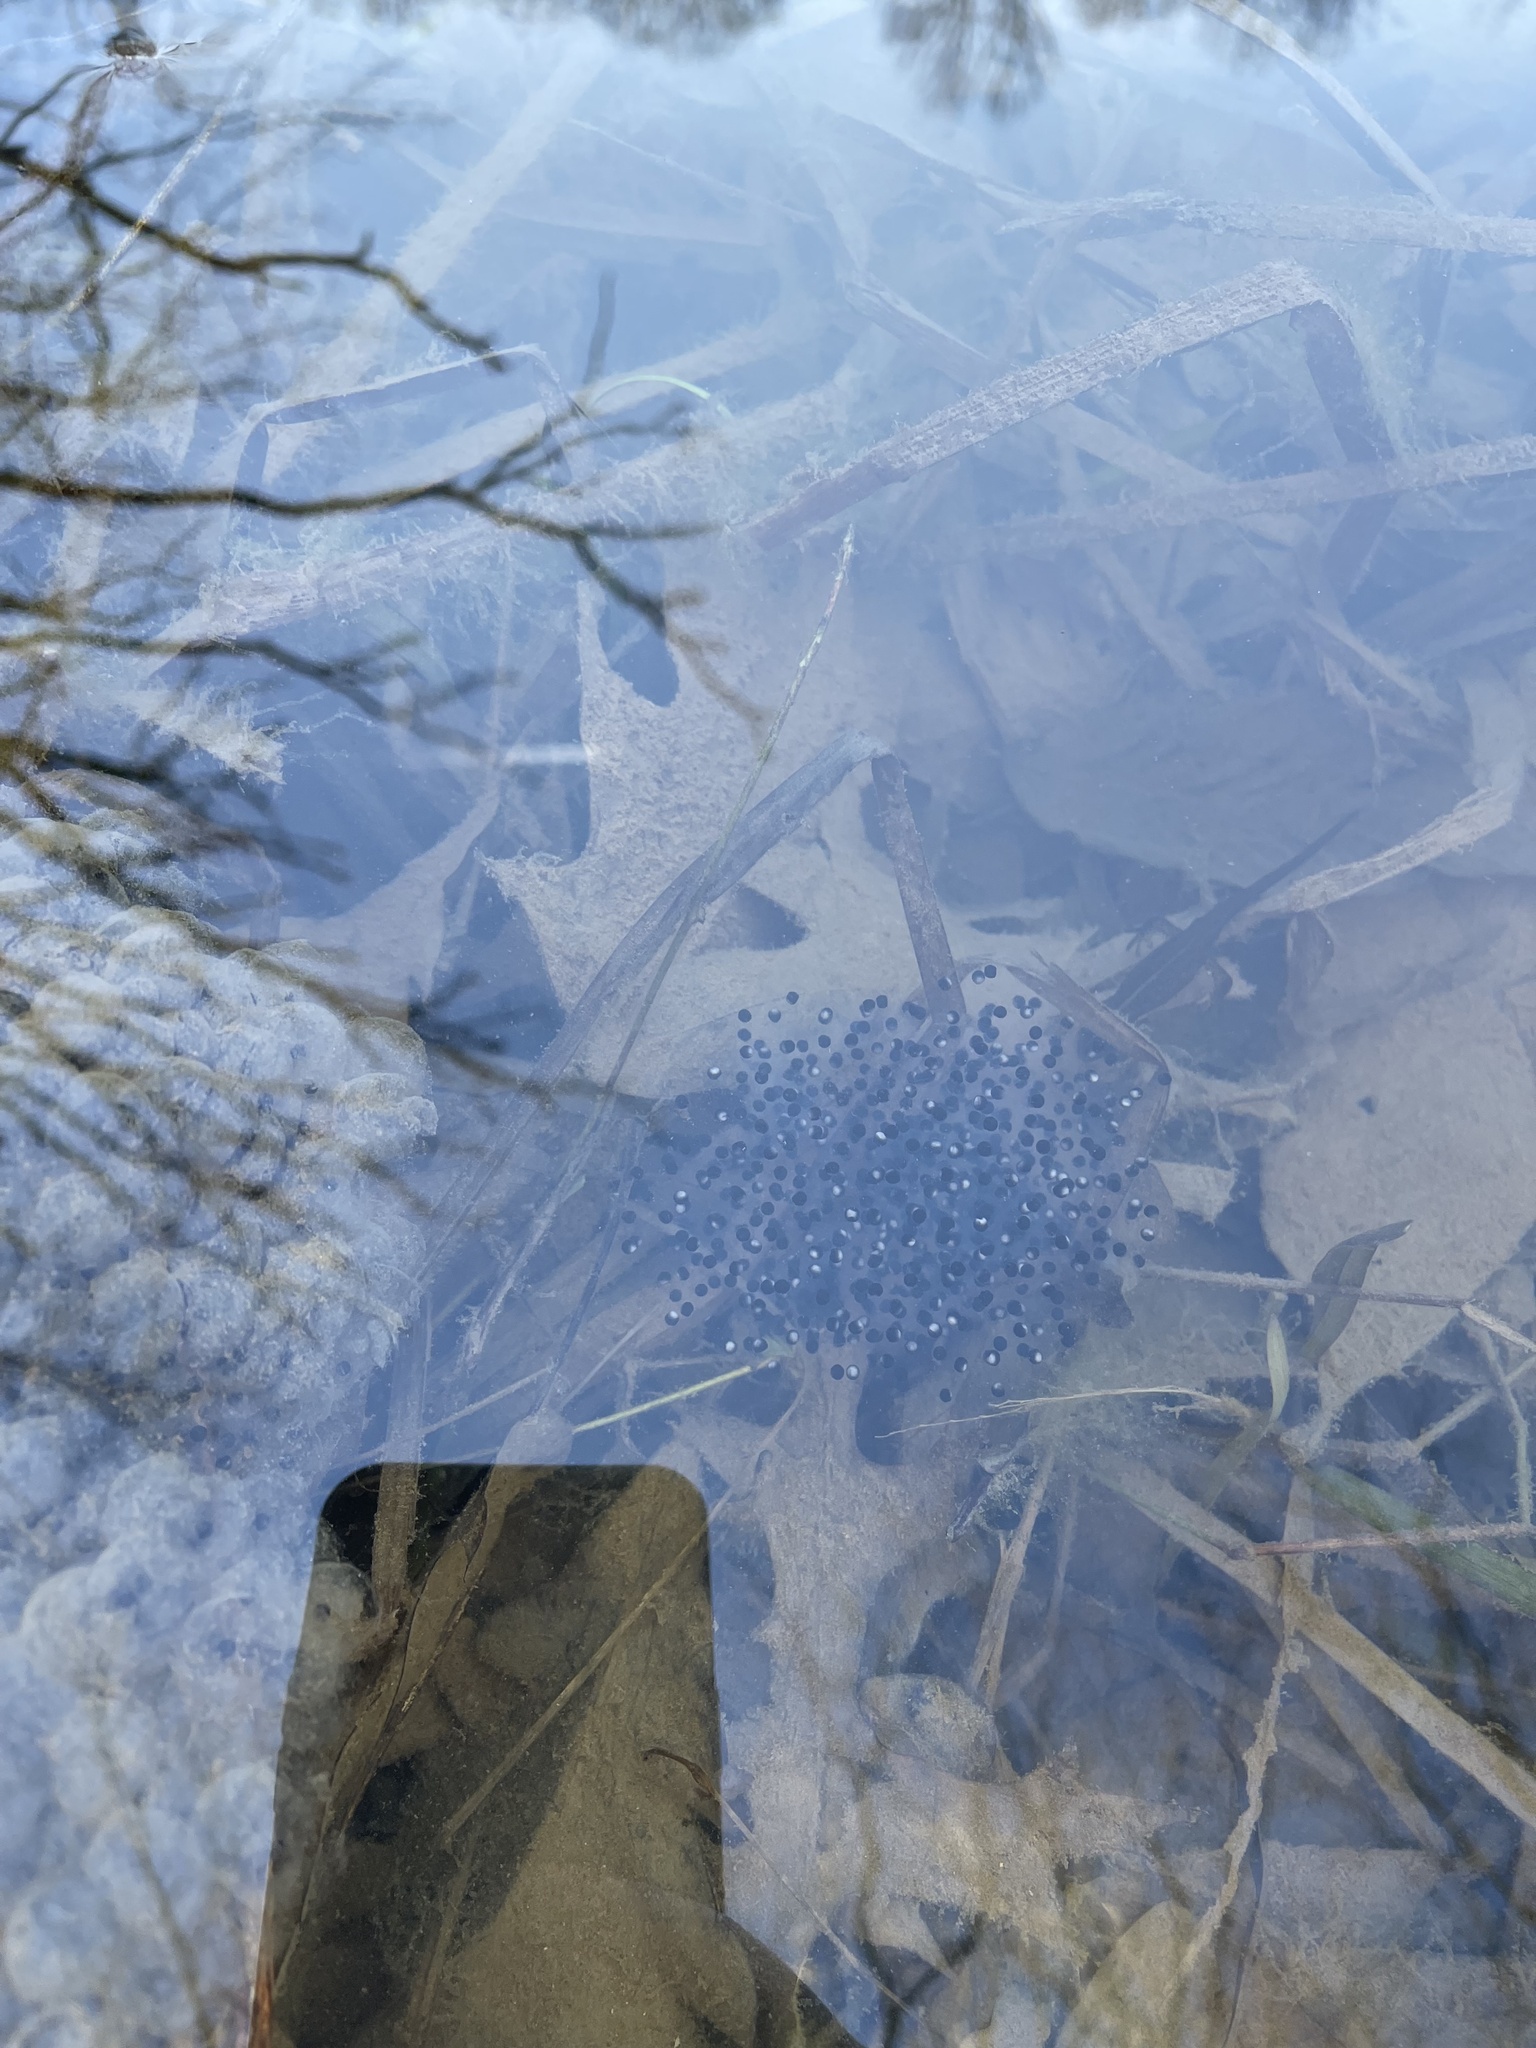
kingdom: Animalia
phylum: Chordata
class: Amphibia
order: Anura
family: Ranidae
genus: Lithobates
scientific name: Lithobates sylvaticus
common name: Wood frog
